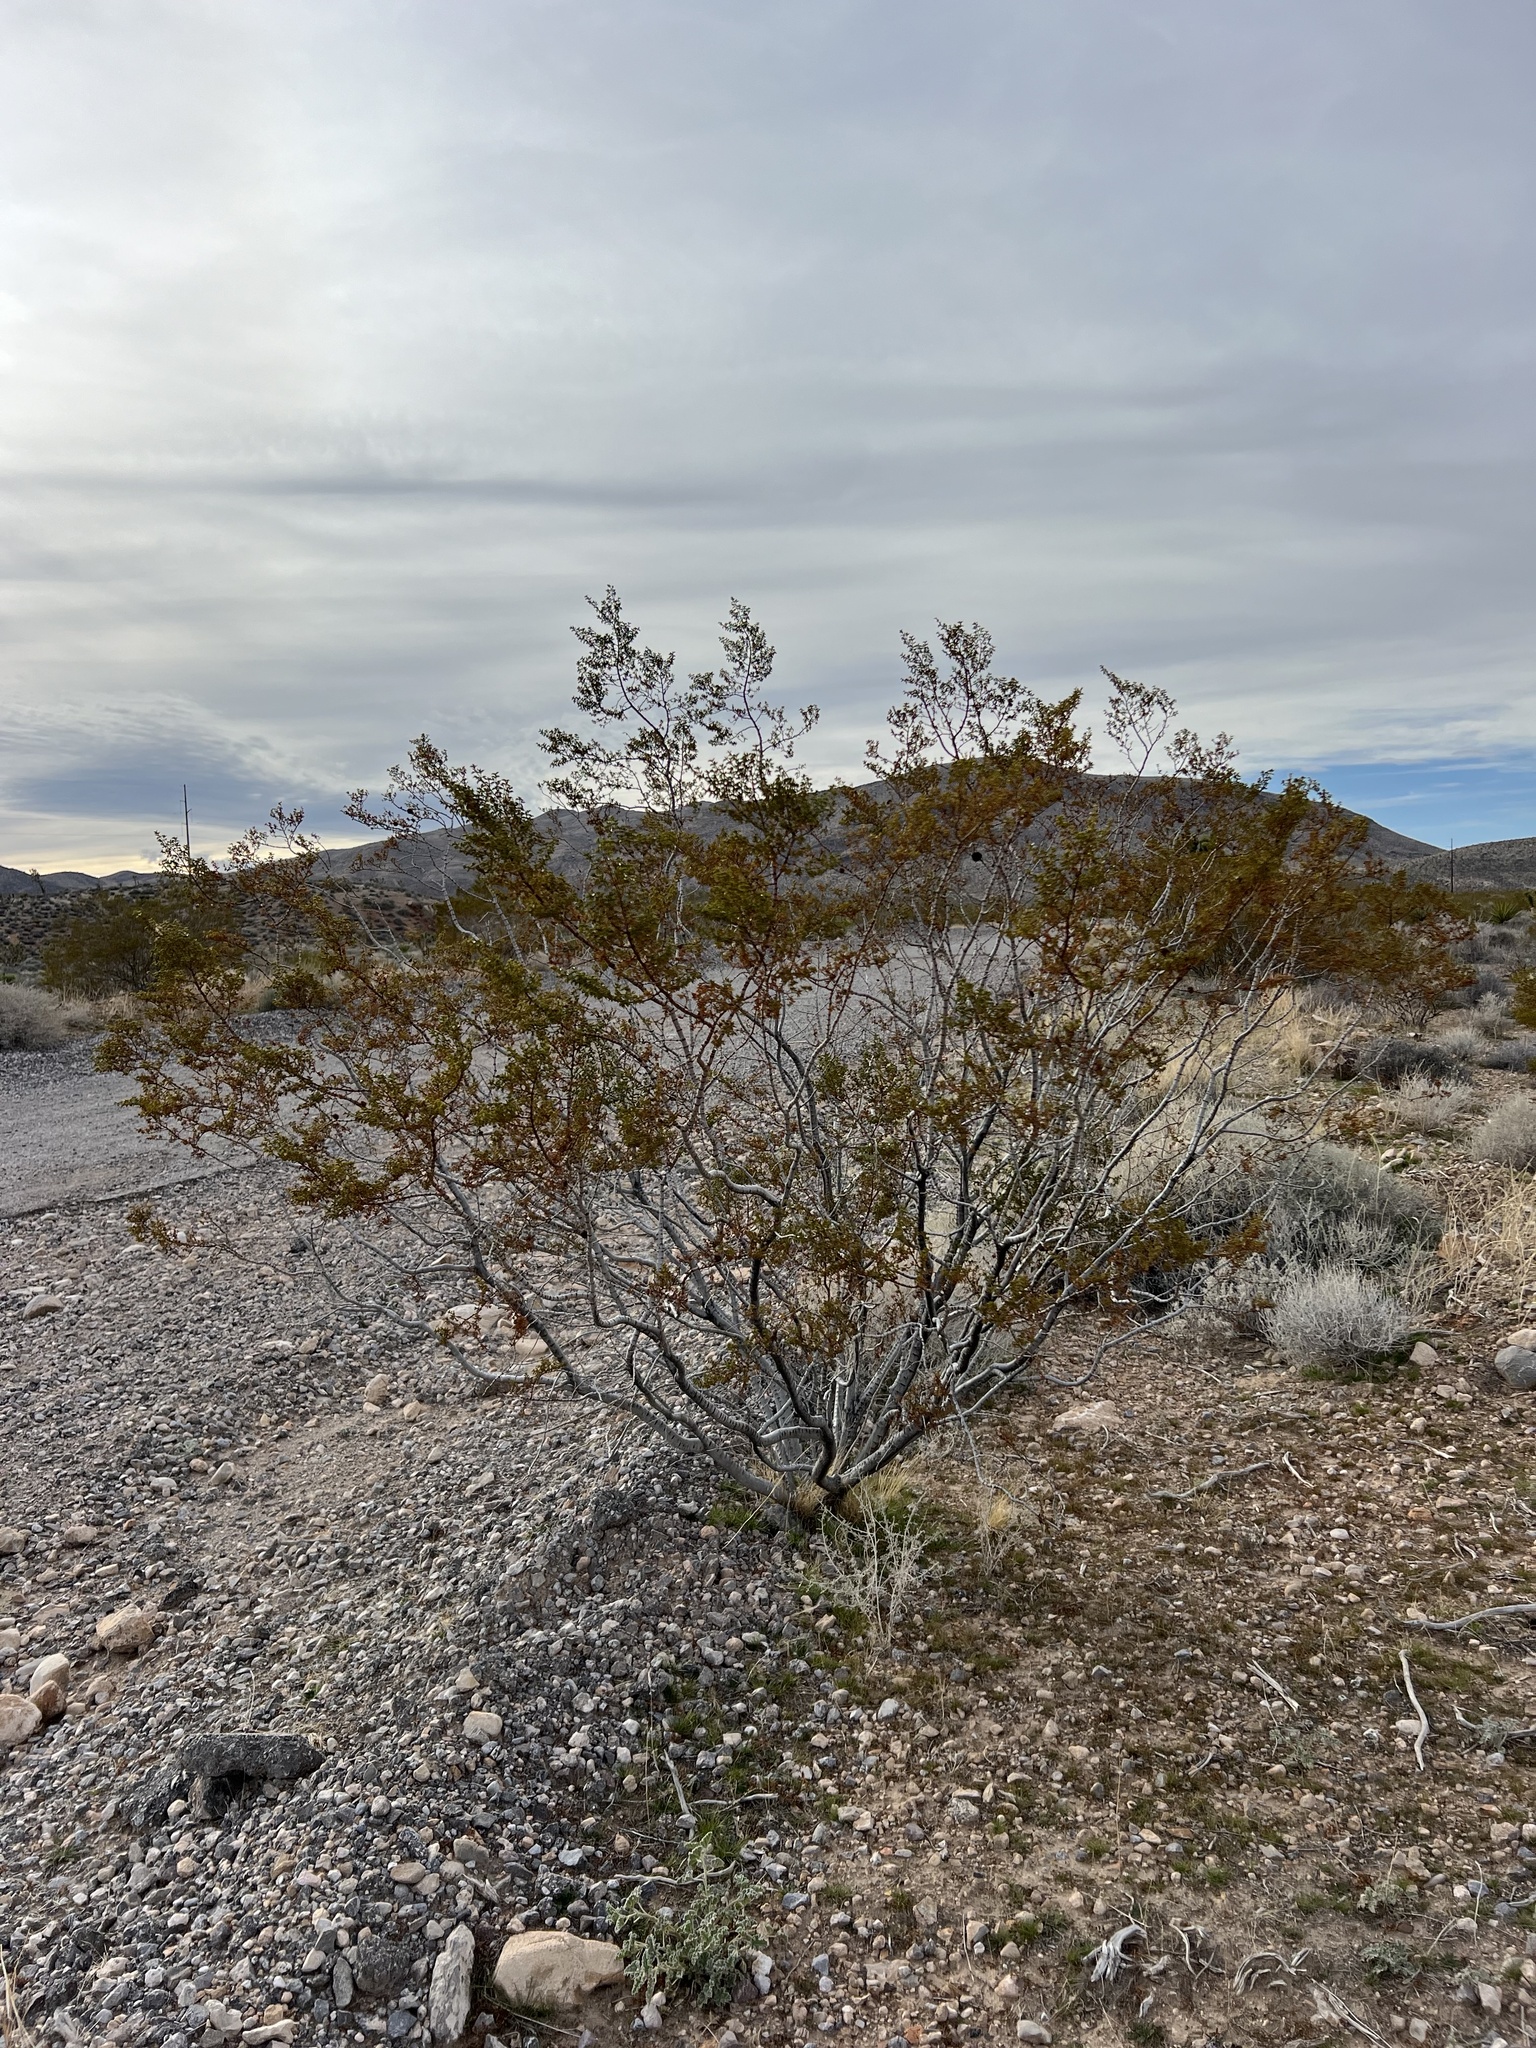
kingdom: Plantae
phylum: Tracheophyta
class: Magnoliopsida
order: Zygophyllales
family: Zygophyllaceae
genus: Larrea
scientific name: Larrea tridentata
